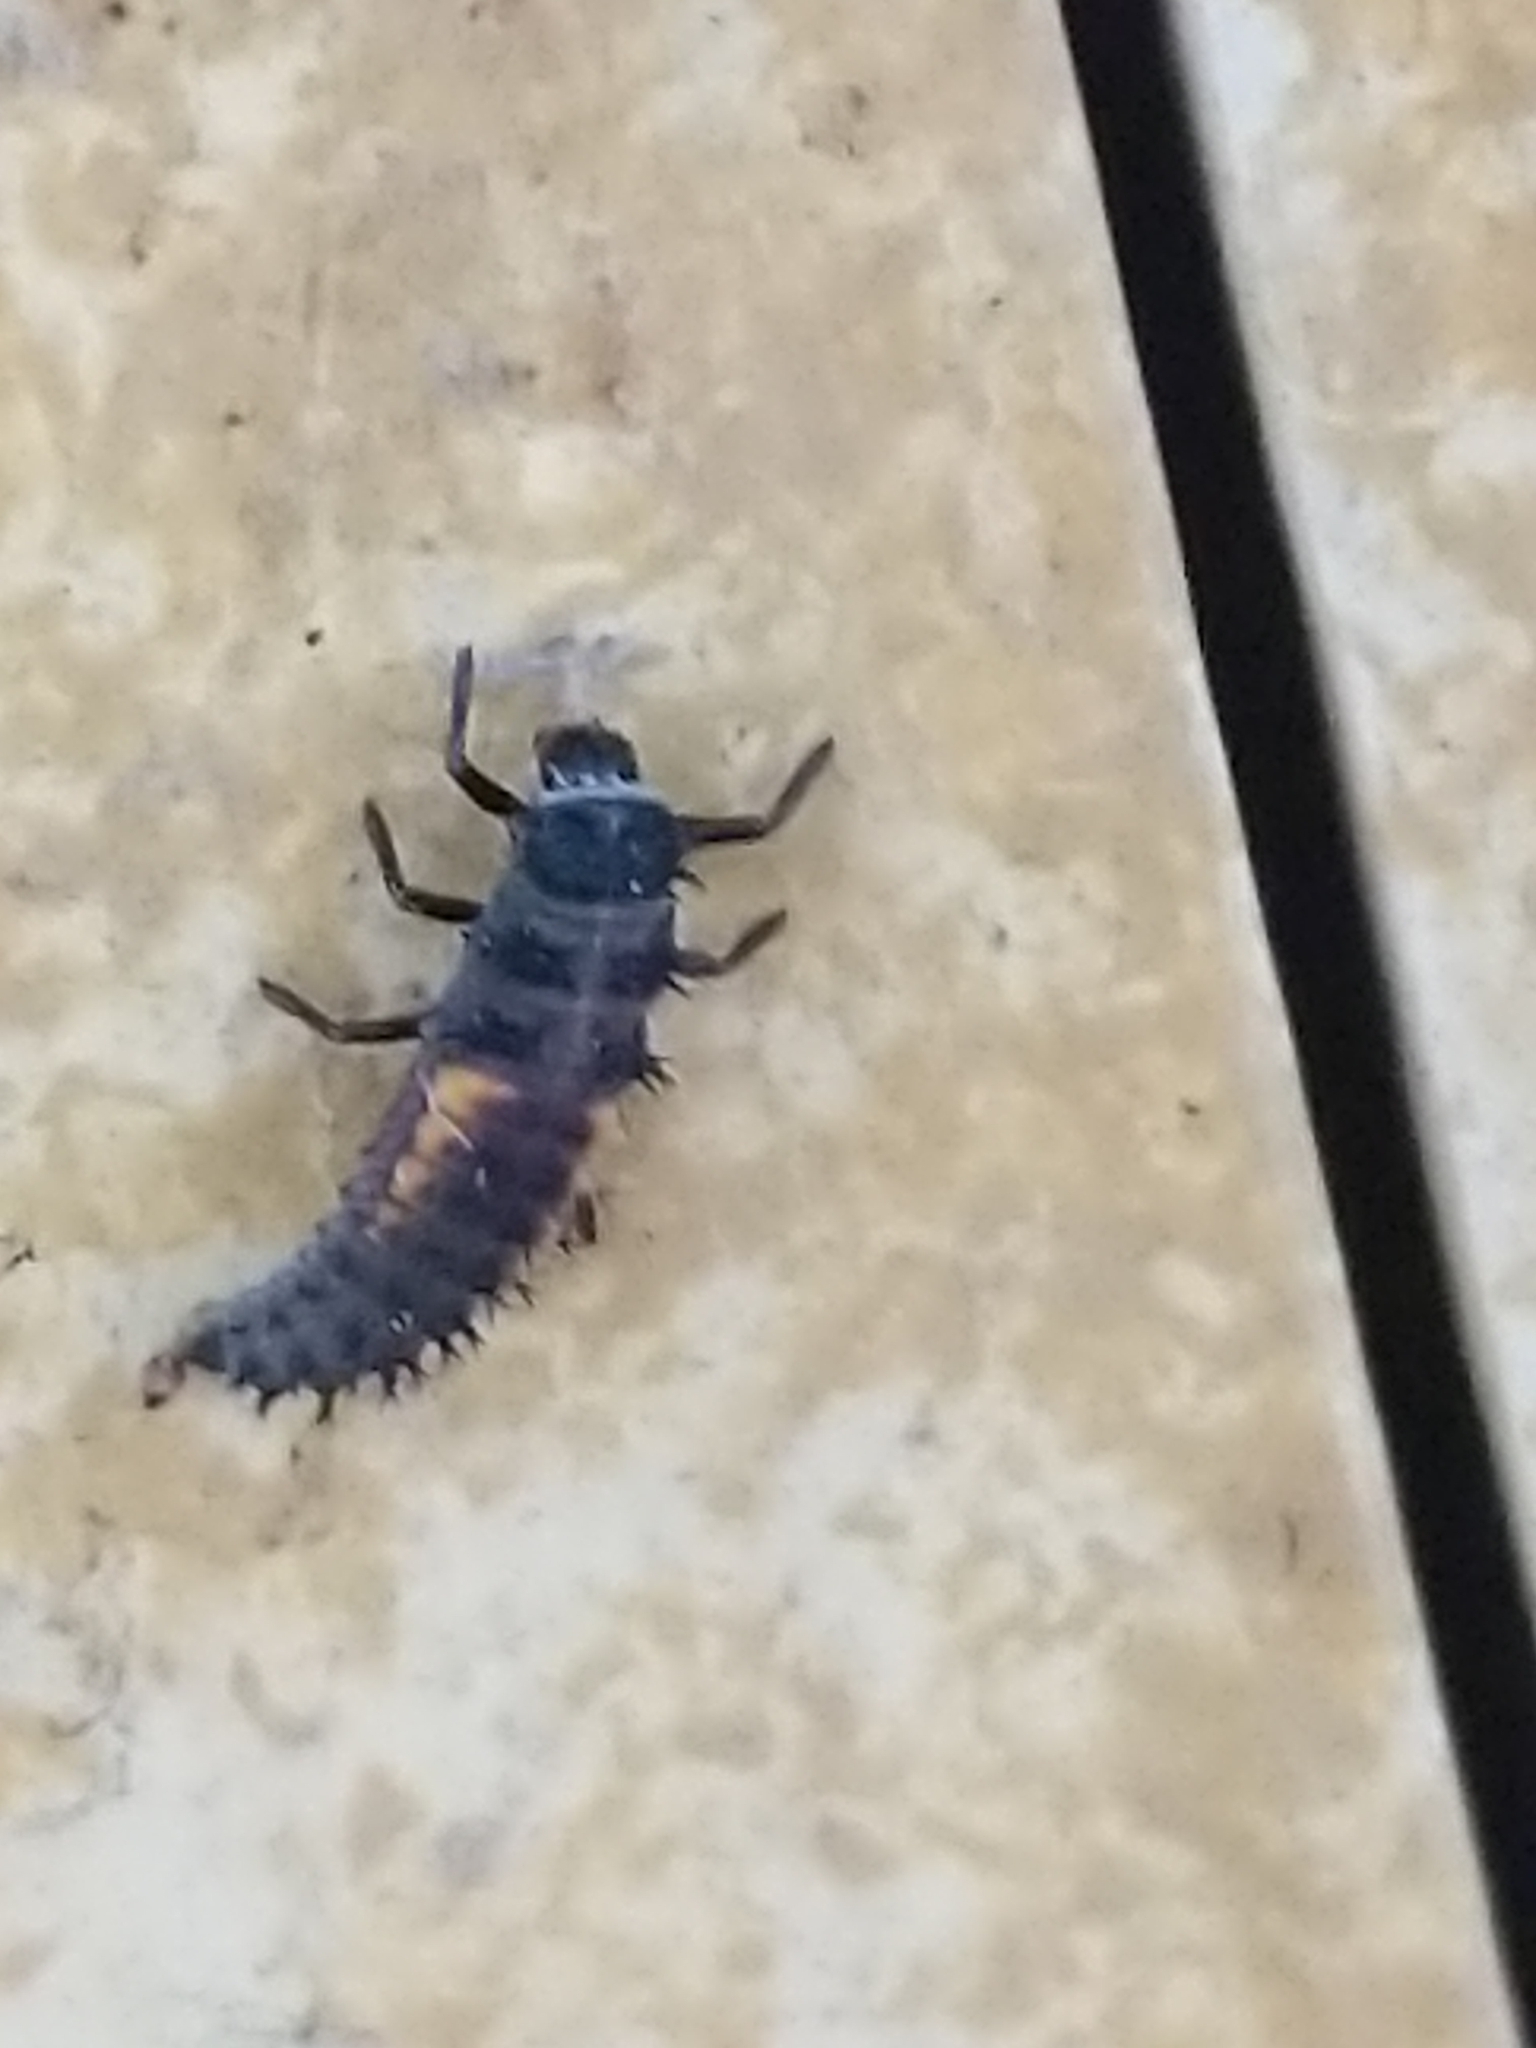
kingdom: Animalia
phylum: Arthropoda
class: Insecta
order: Coleoptera
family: Coccinellidae
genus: Harmonia
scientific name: Harmonia axyridis
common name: Harlequin ladybird
